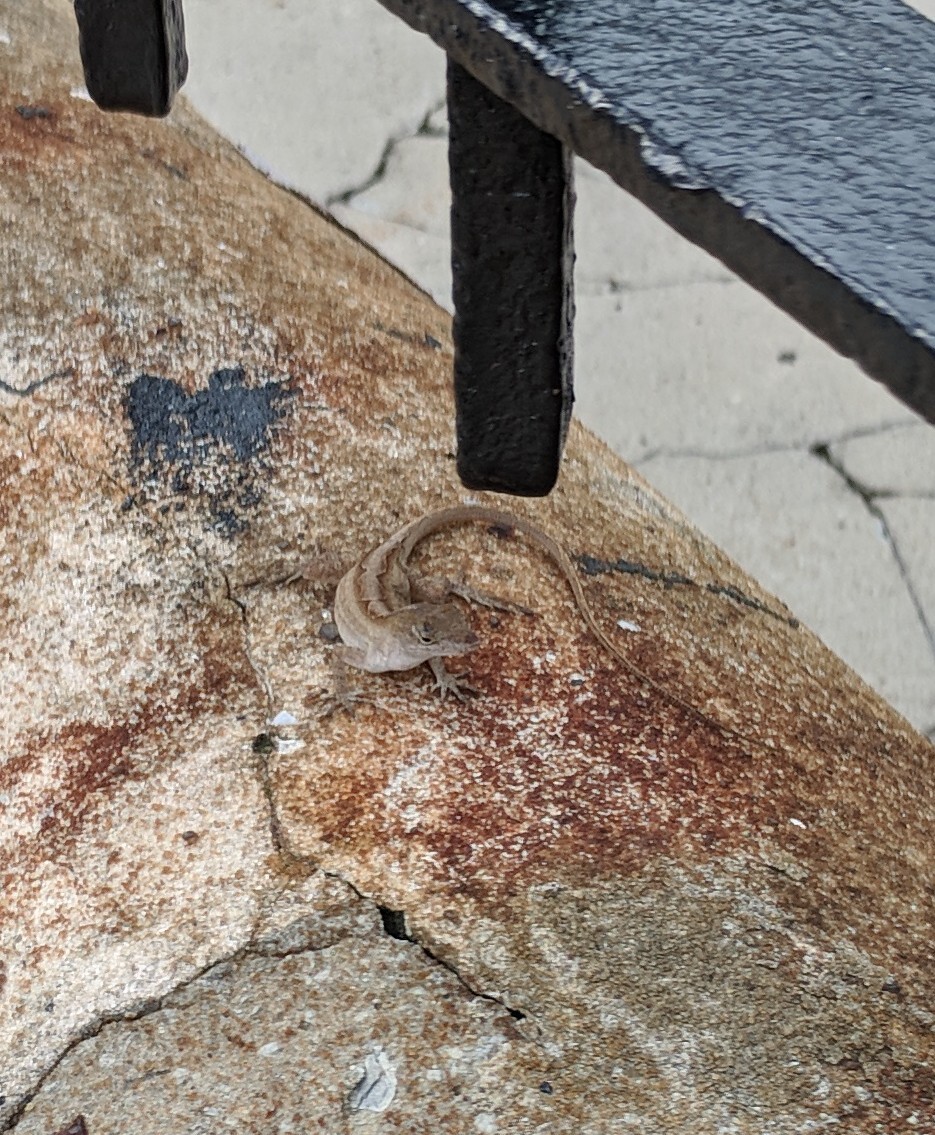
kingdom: Animalia
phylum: Chordata
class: Squamata
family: Dactyloidae
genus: Anolis
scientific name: Anolis sagrei
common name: Brown anole
